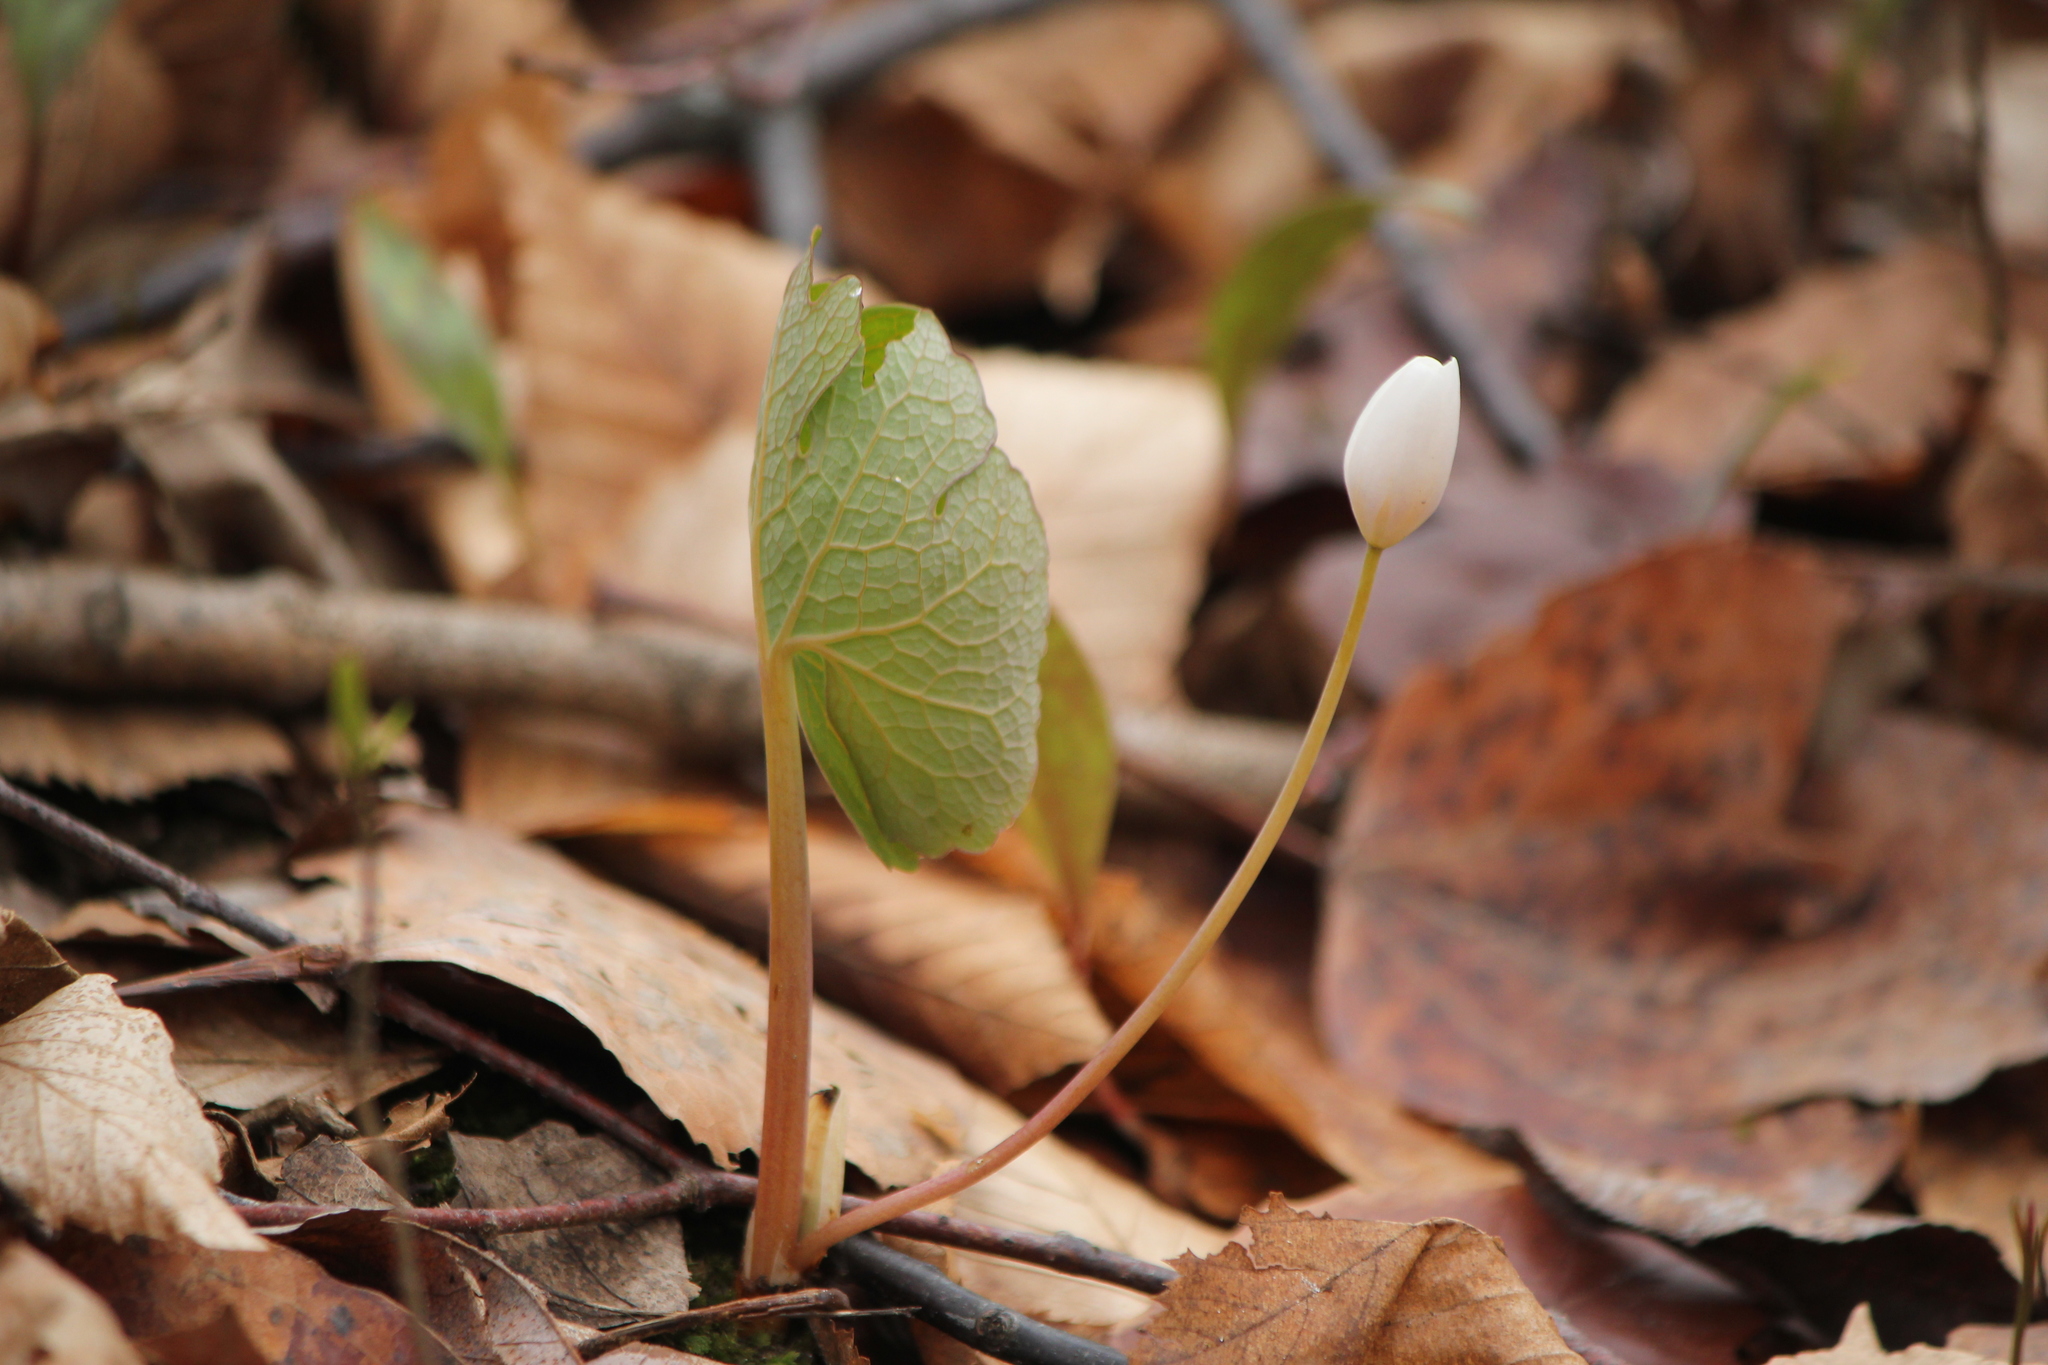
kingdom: Plantae
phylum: Tracheophyta
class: Magnoliopsida
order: Ranunculales
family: Papaveraceae
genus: Sanguinaria
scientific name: Sanguinaria canadensis
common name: Bloodroot
